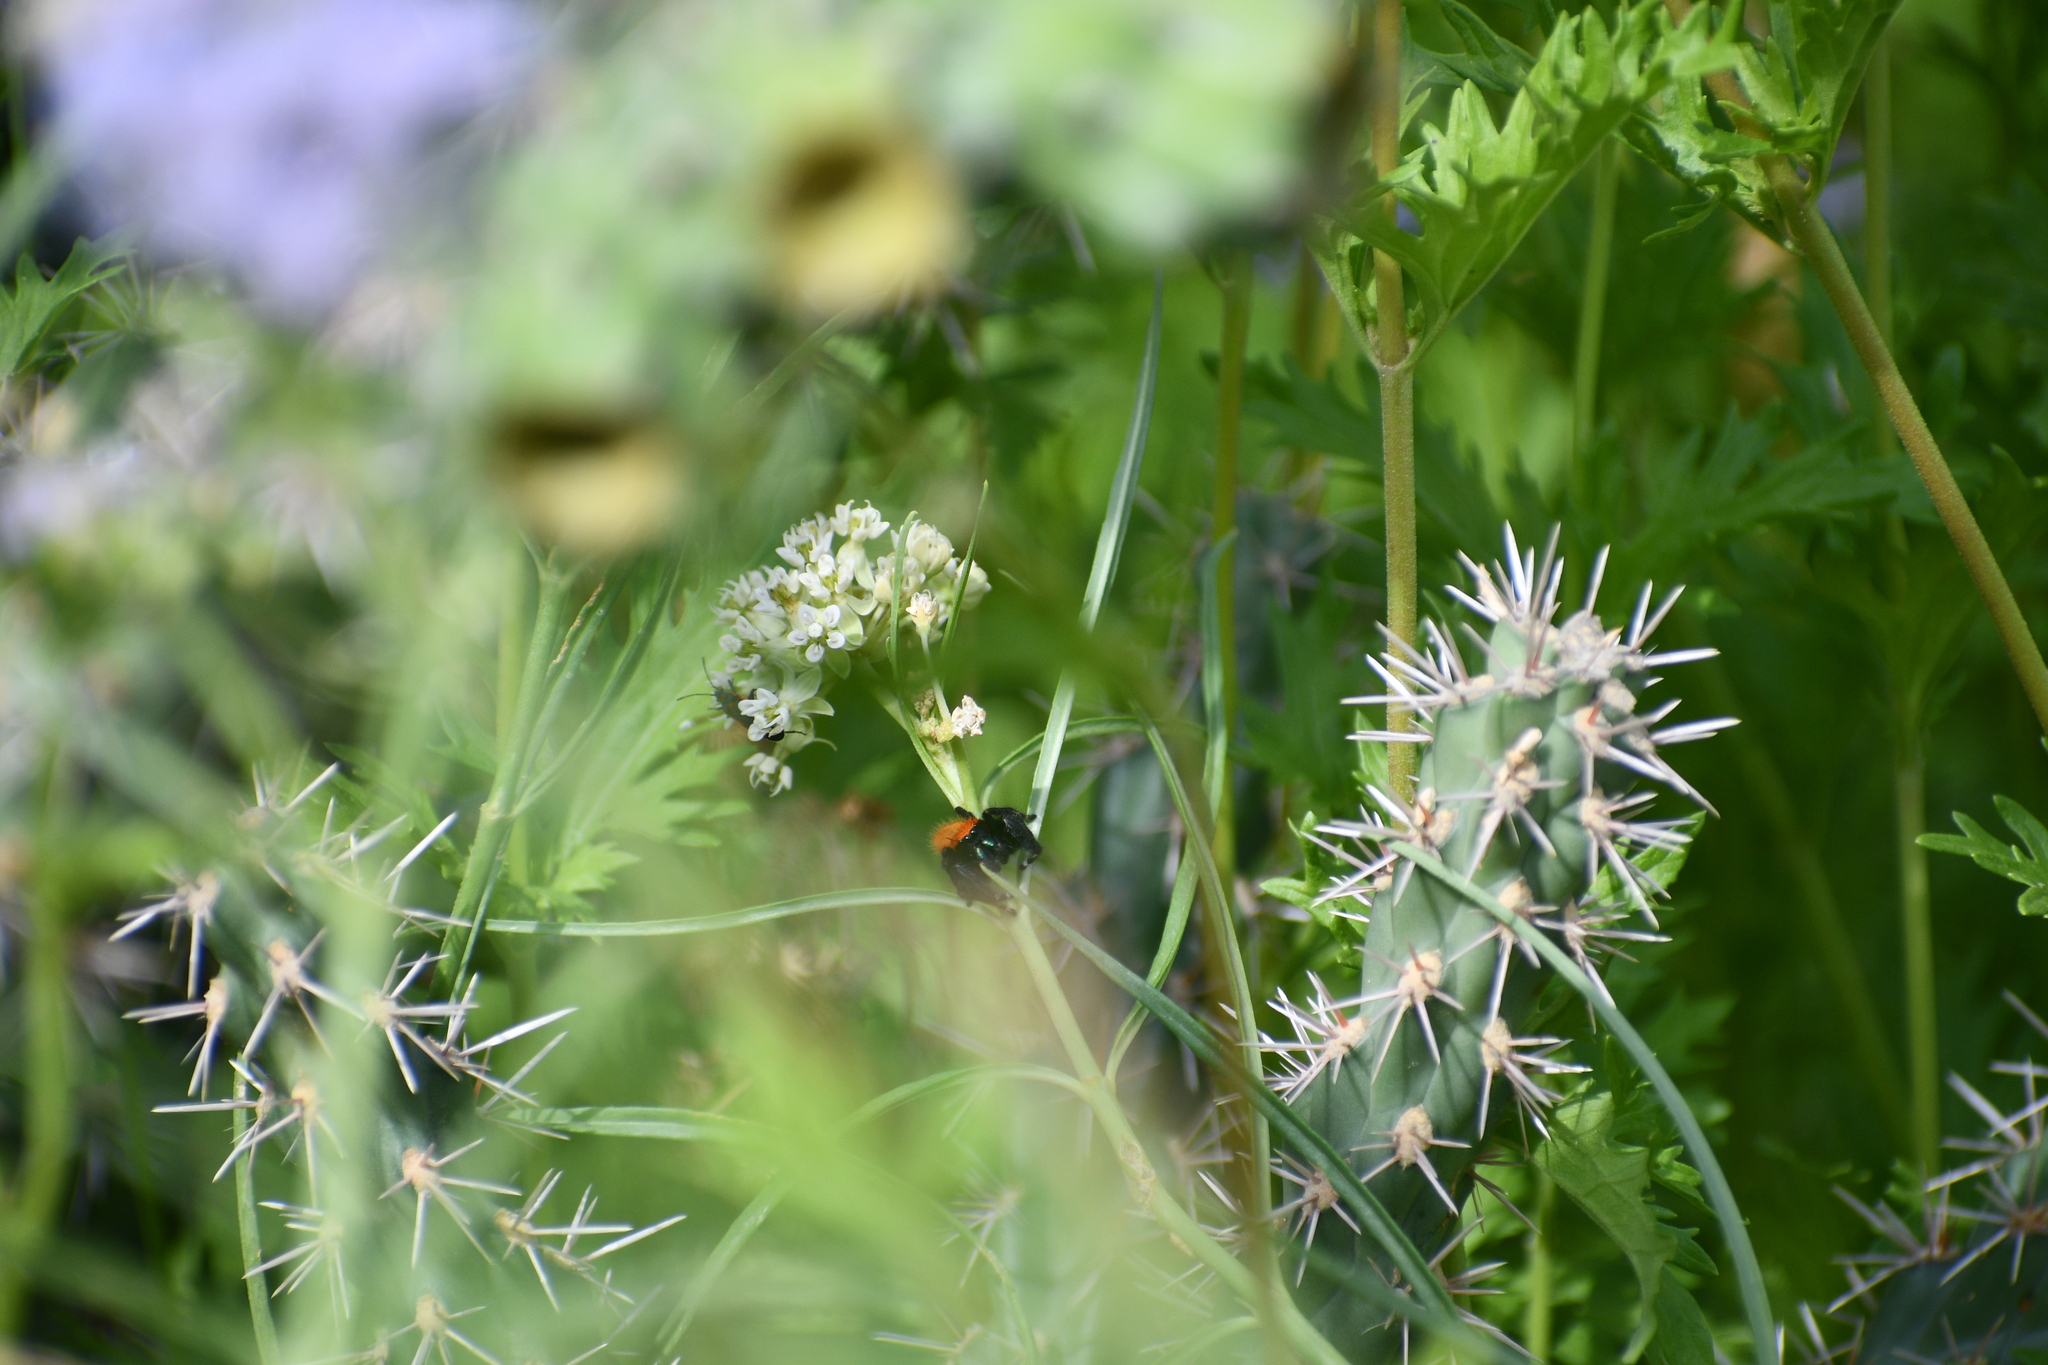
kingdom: Animalia
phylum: Arthropoda
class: Arachnida
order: Araneae
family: Salticidae
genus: Phidippus
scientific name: Phidippus apacheanus
